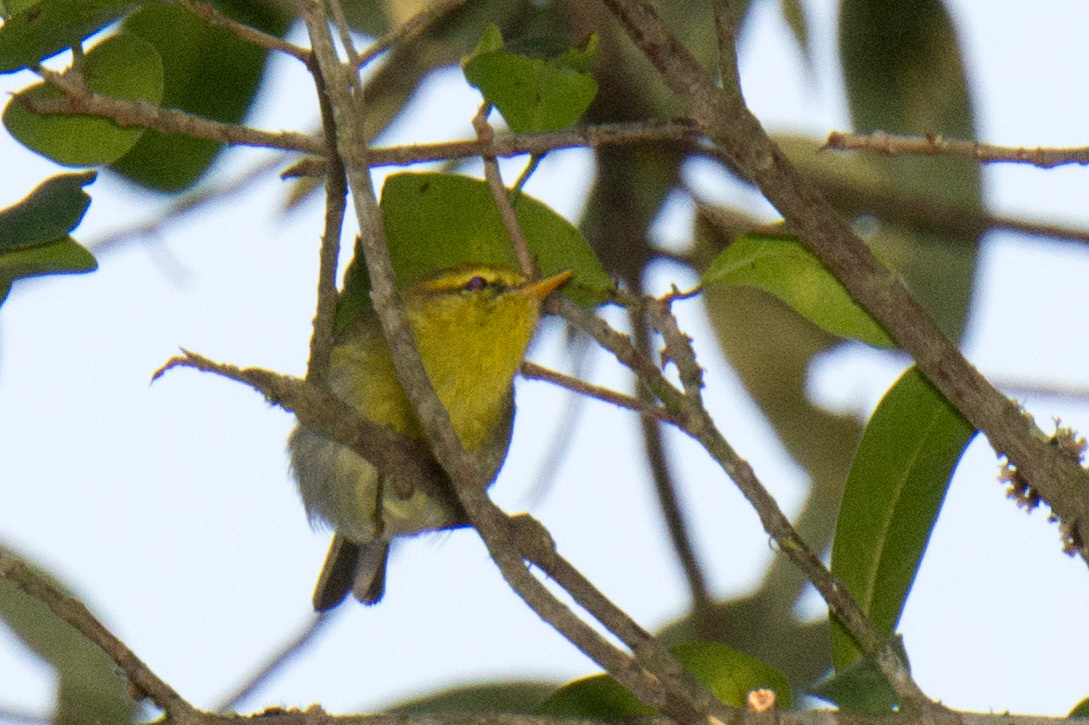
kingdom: Animalia
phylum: Chordata
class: Aves
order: Passeriformes
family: Phylloscopidae
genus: Phylloscopus
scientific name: Phylloscopus ruficapilla
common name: Yellow-throated woodland warbler
